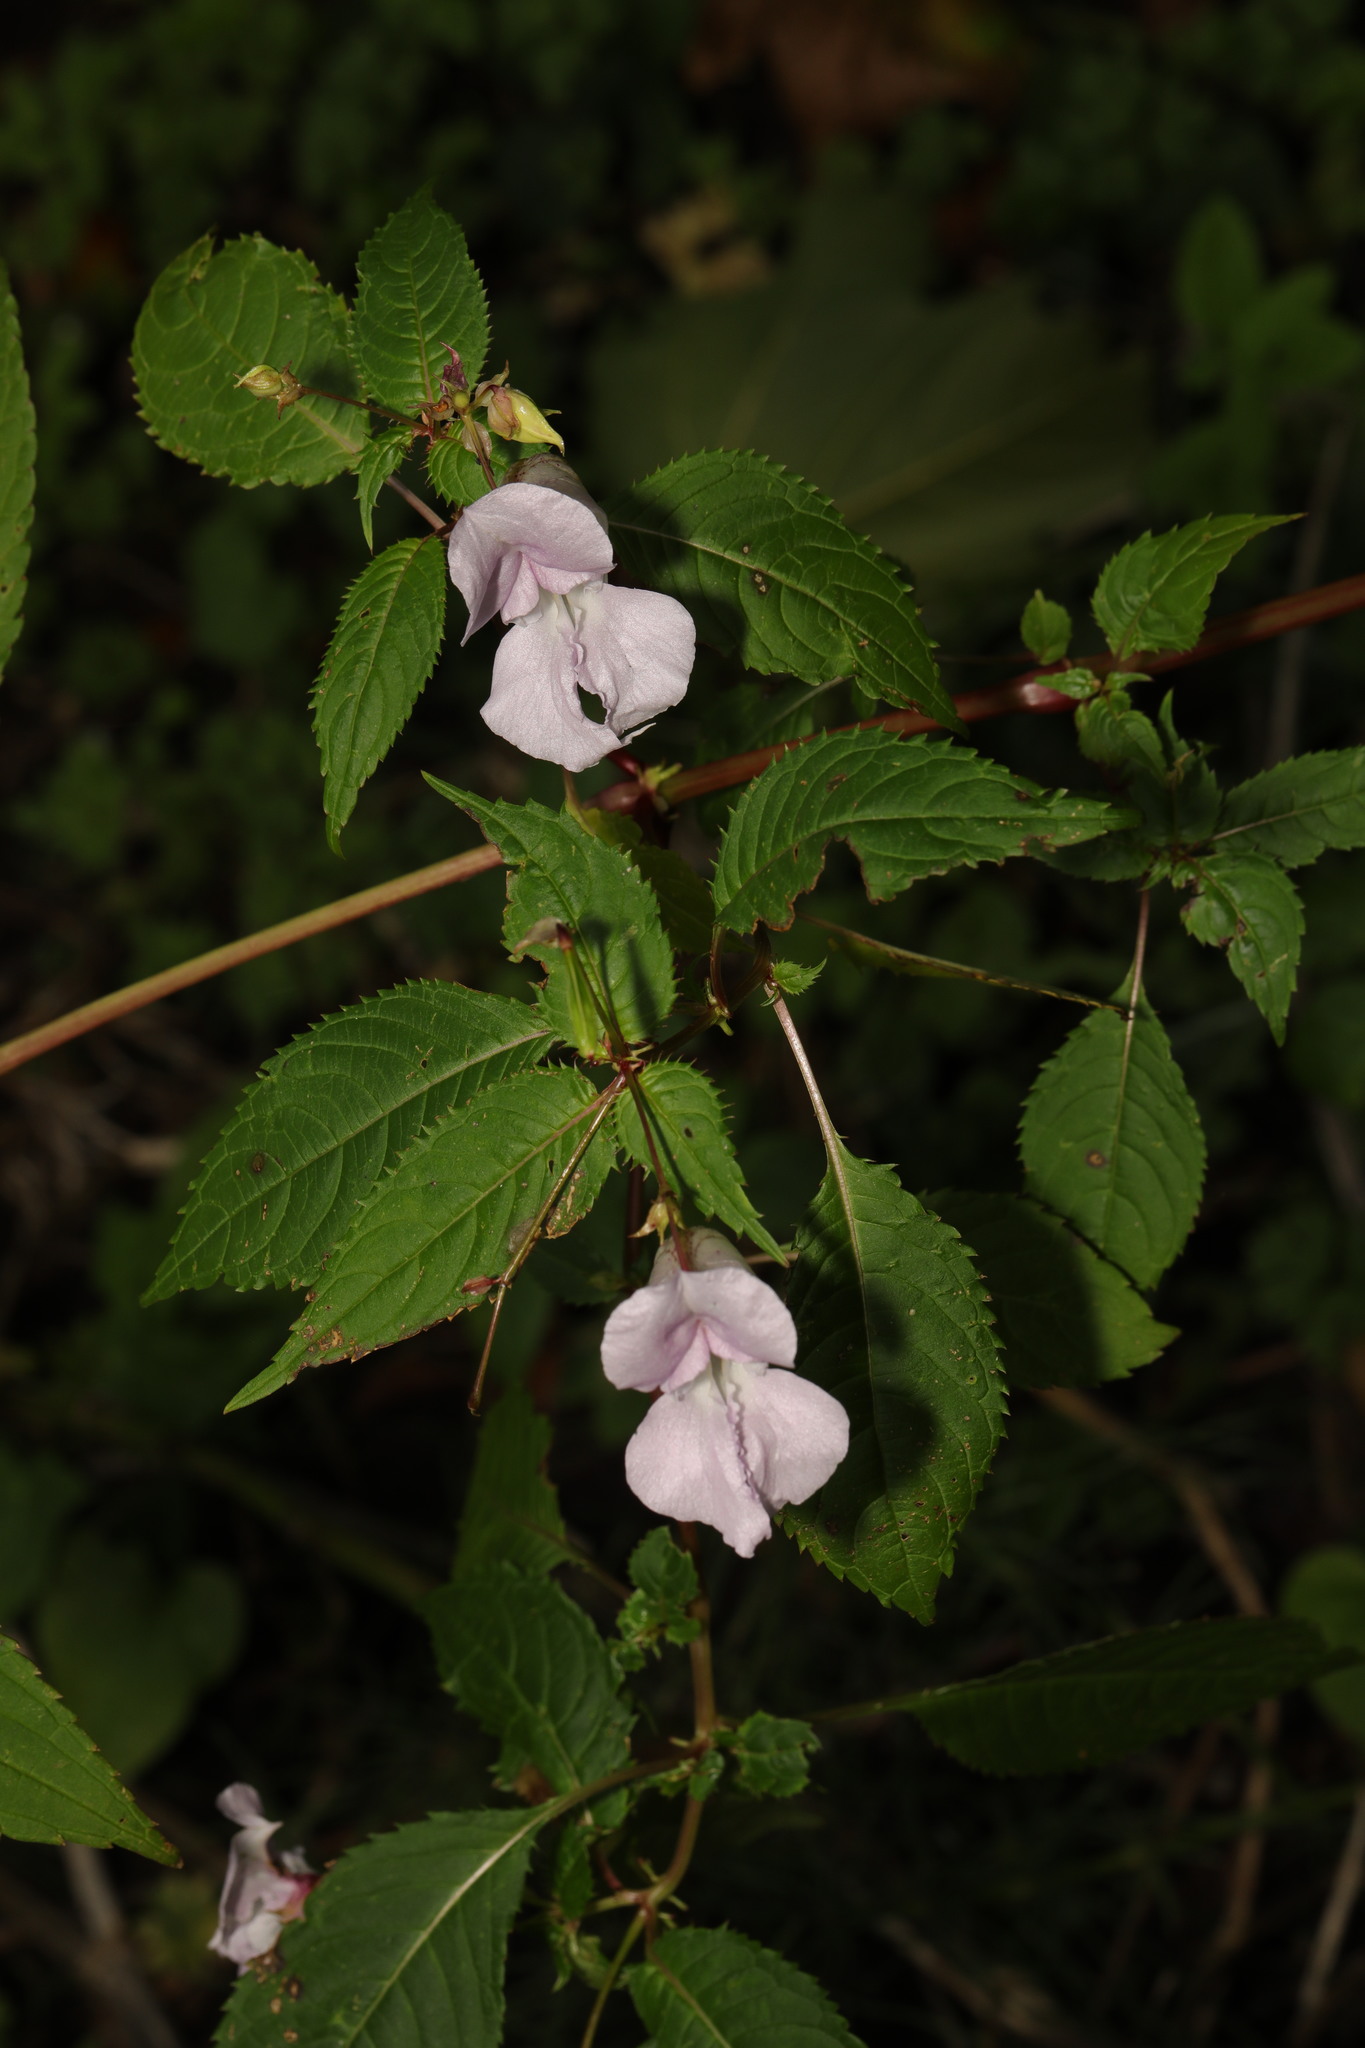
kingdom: Plantae
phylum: Tracheophyta
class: Magnoliopsida
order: Ericales
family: Balsaminaceae
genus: Impatiens
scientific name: Impatiens glandulifera
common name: Himalayan balsam
